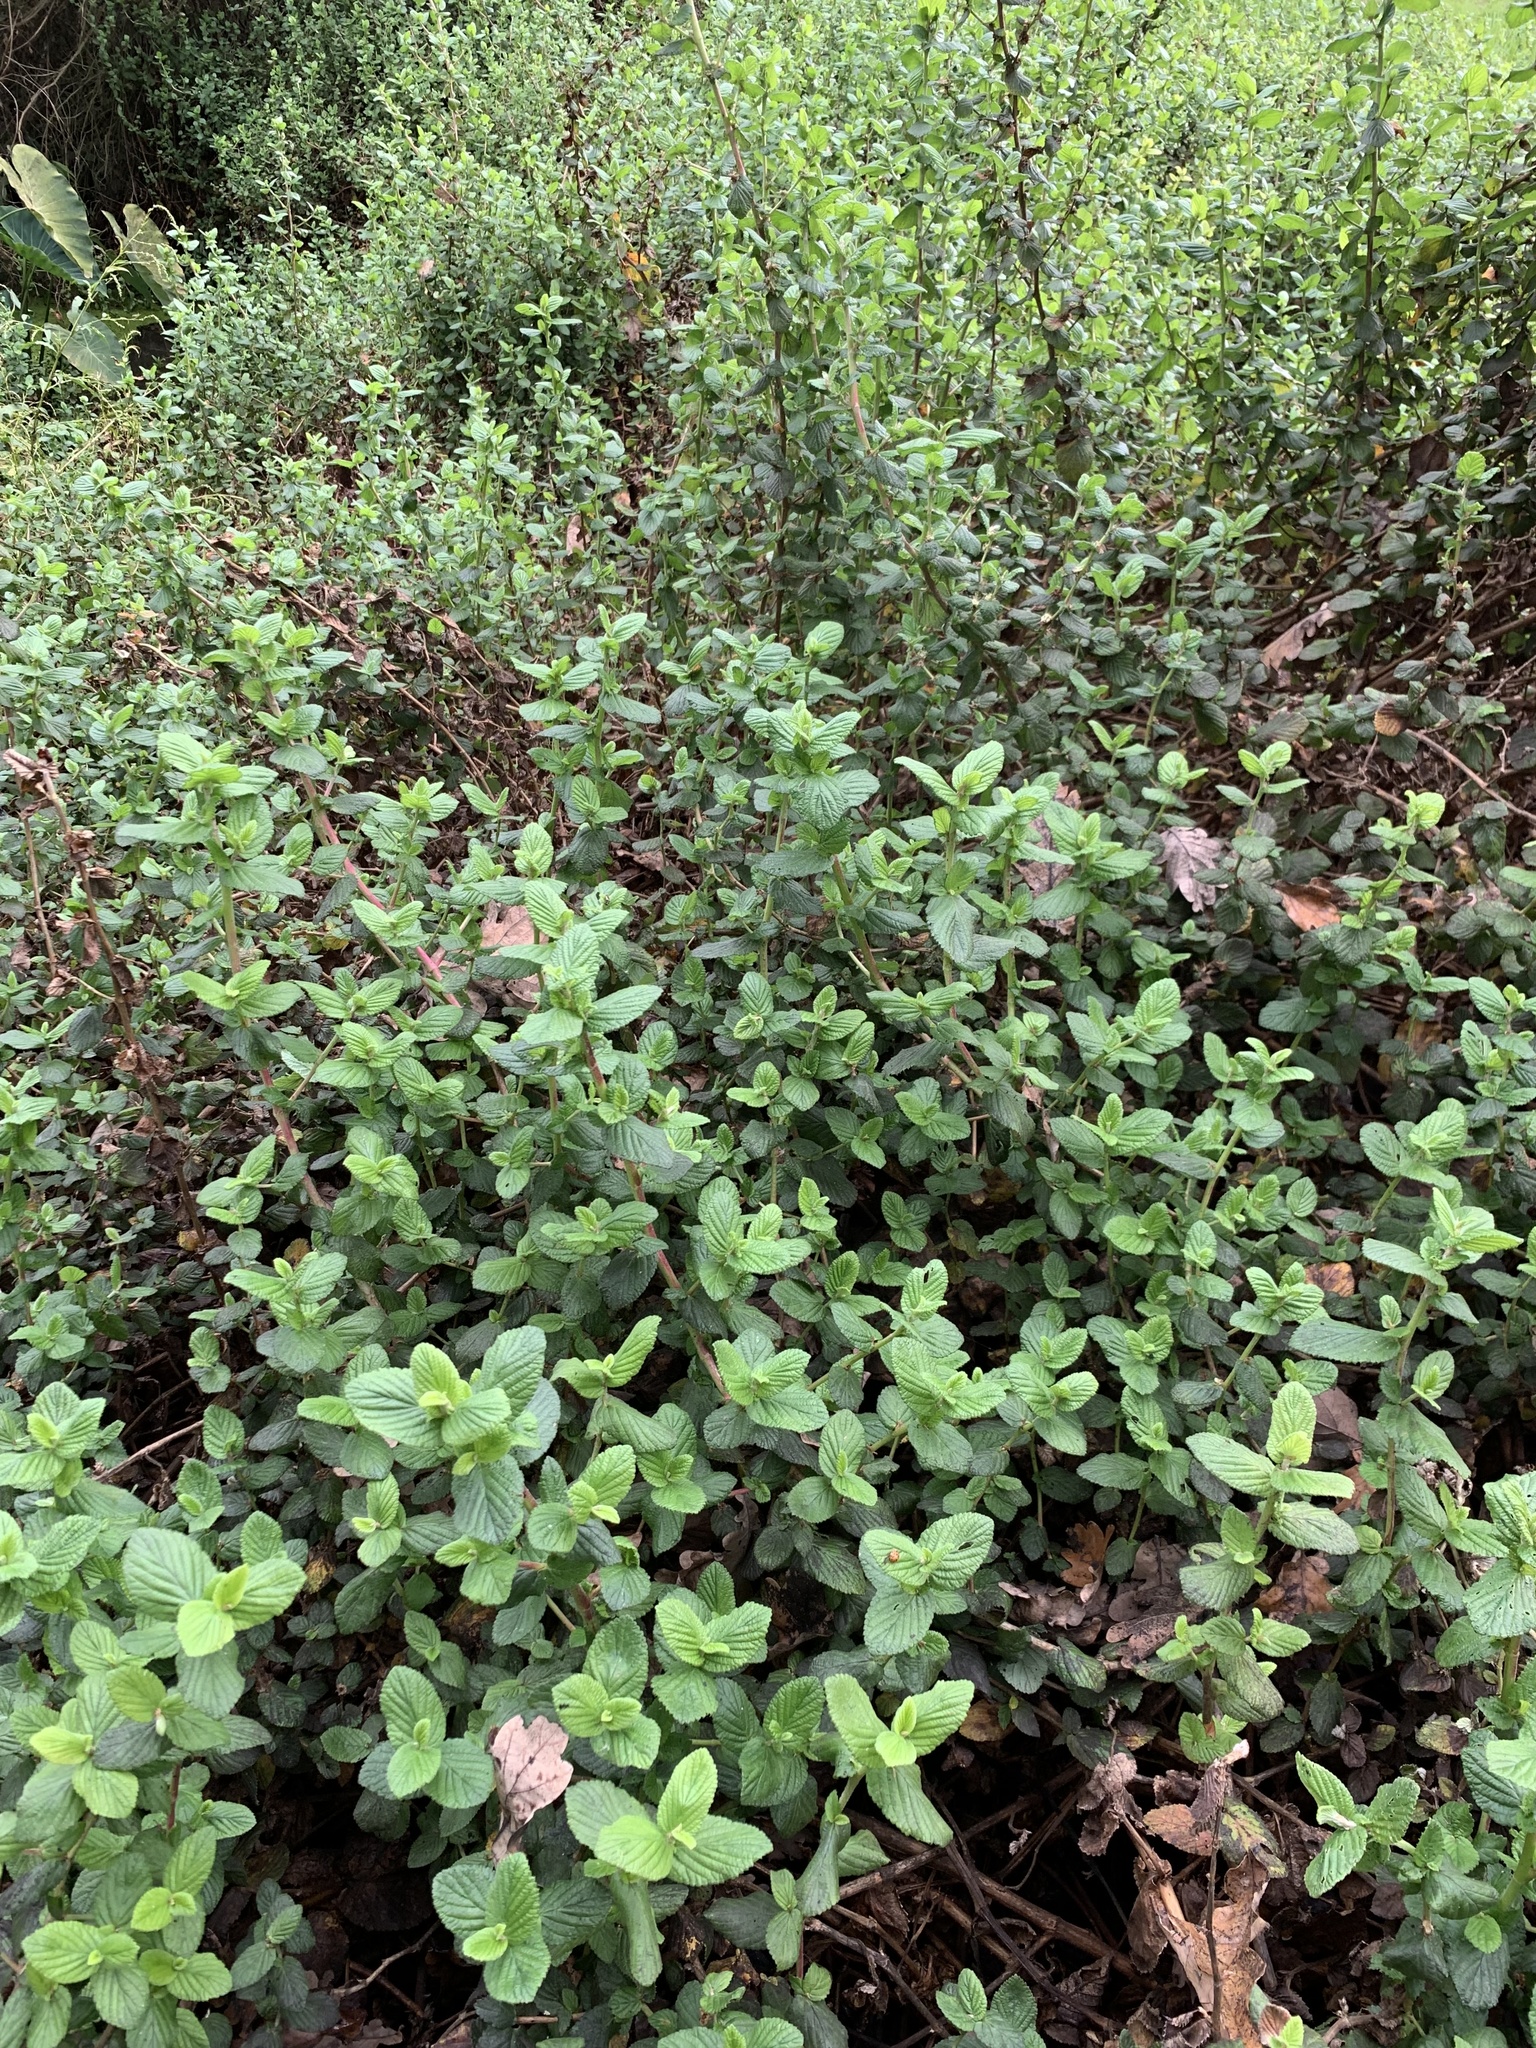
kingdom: Plantae
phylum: Tracheophyta
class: Magnoliopsida
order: Rosales
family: Rosaceae
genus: Cliffortia
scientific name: Cliffortia odorata
